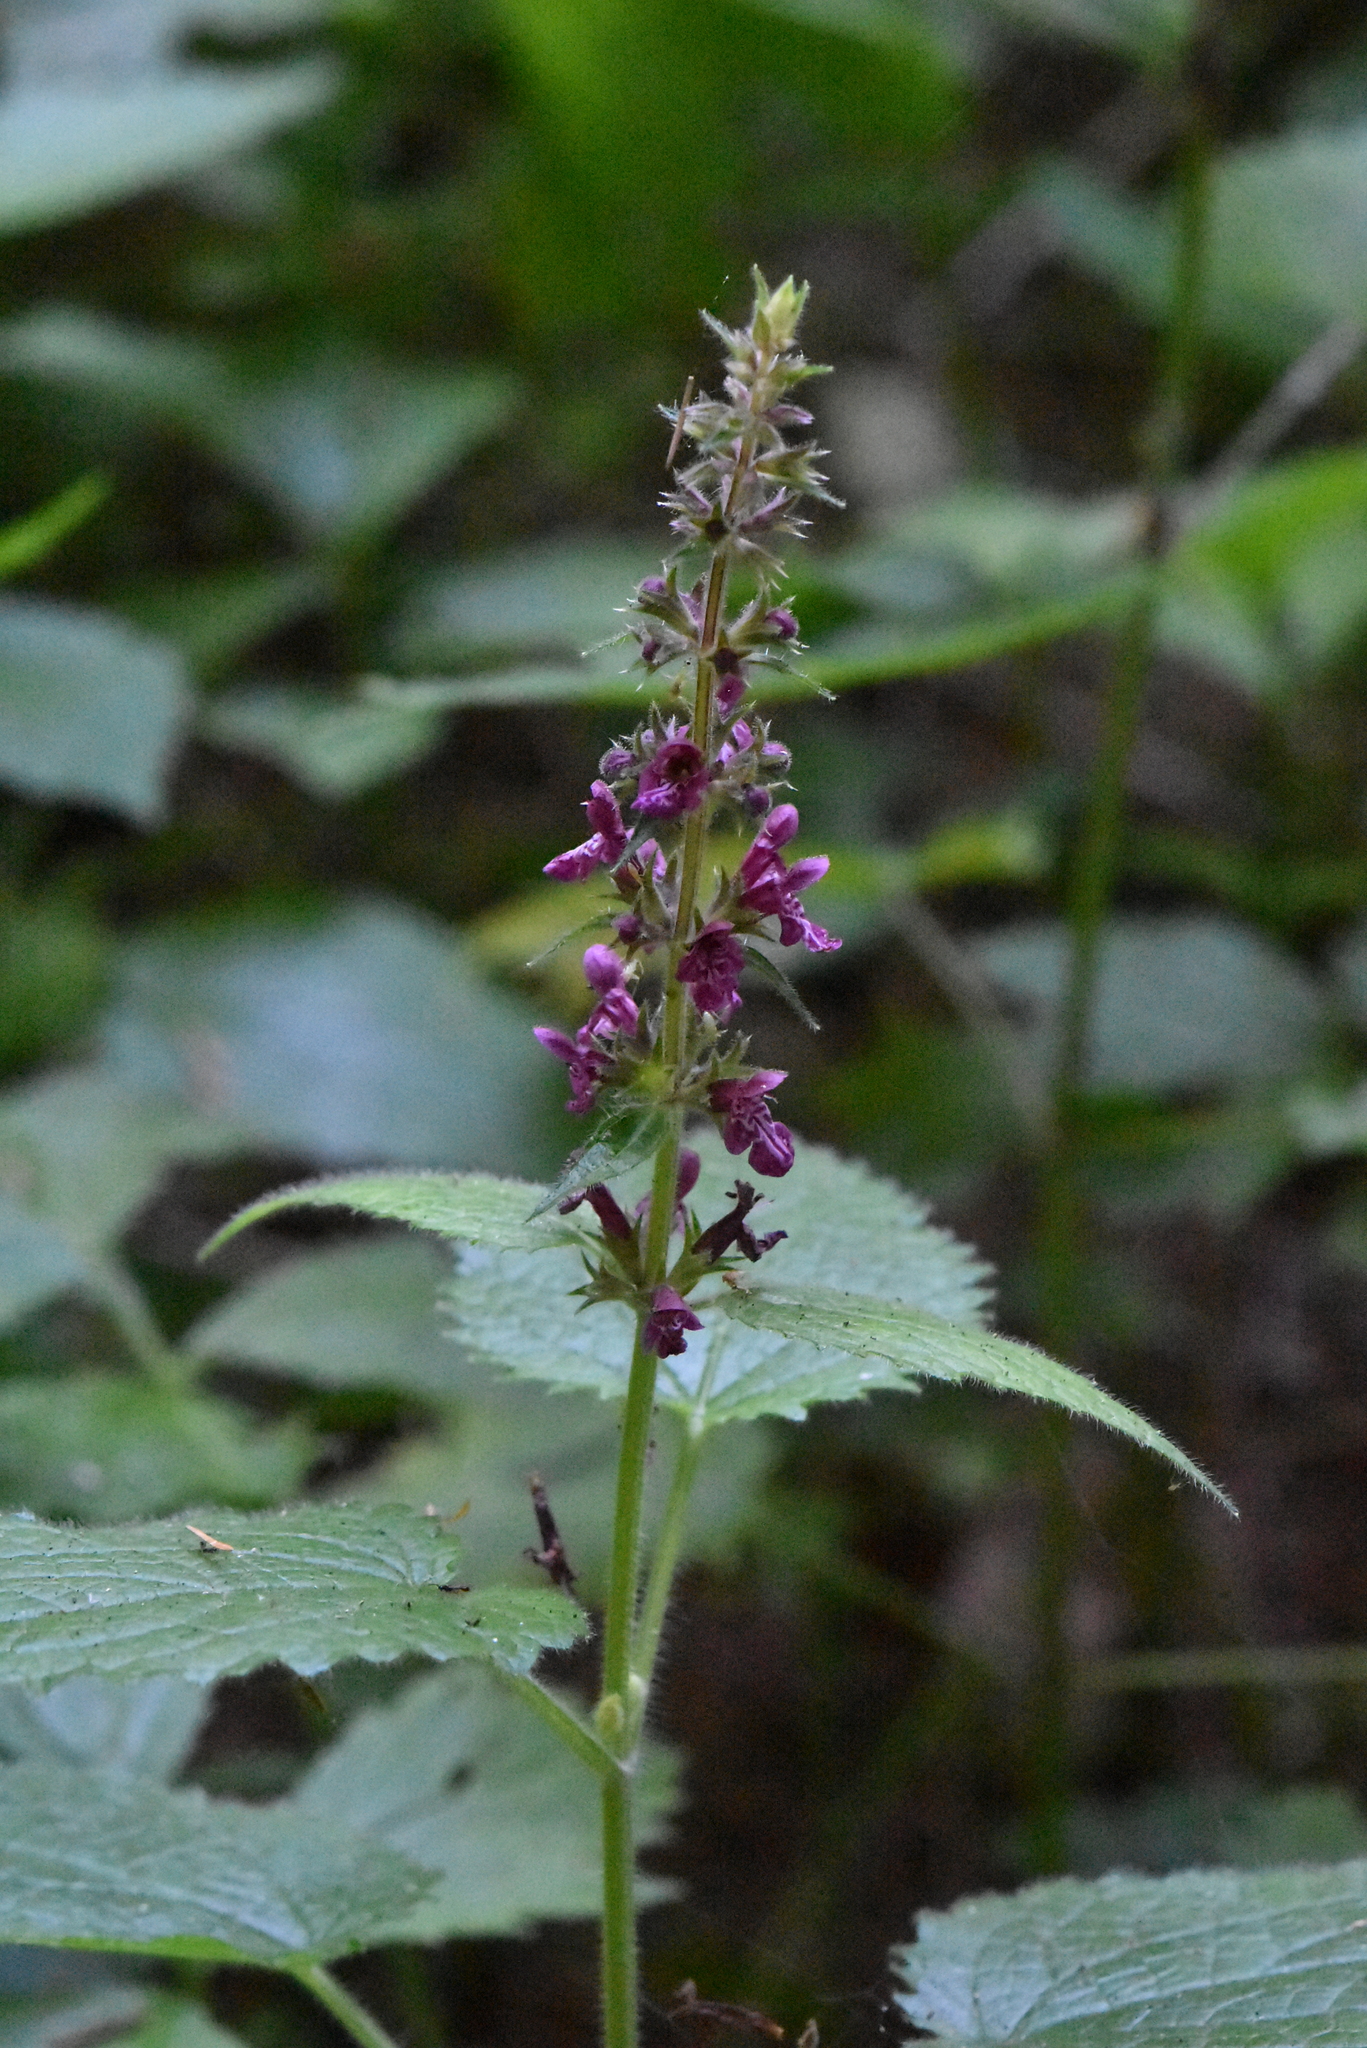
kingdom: Plantae
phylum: Tracheophyta
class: Magnoliopsida
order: Lamiales
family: Lamiaceae
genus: Stachys
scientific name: Stachys sylvatica
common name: Hedge woundwort
